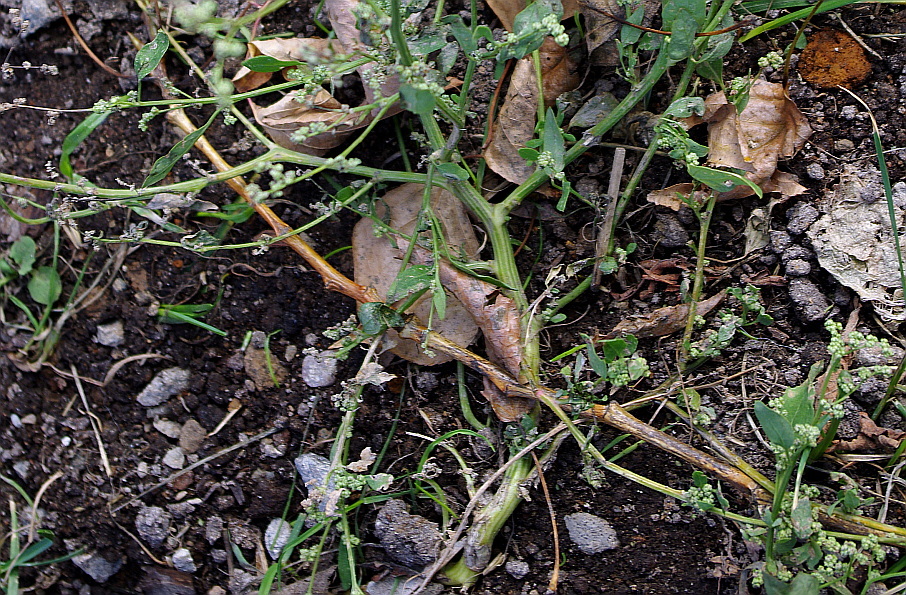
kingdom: Plantae
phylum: Tracheophyta
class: Magnoliopsida
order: Caryophyllales
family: Amaranthaceae
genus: Chenopodium
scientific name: Chenopodium album
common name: Fat-hen
